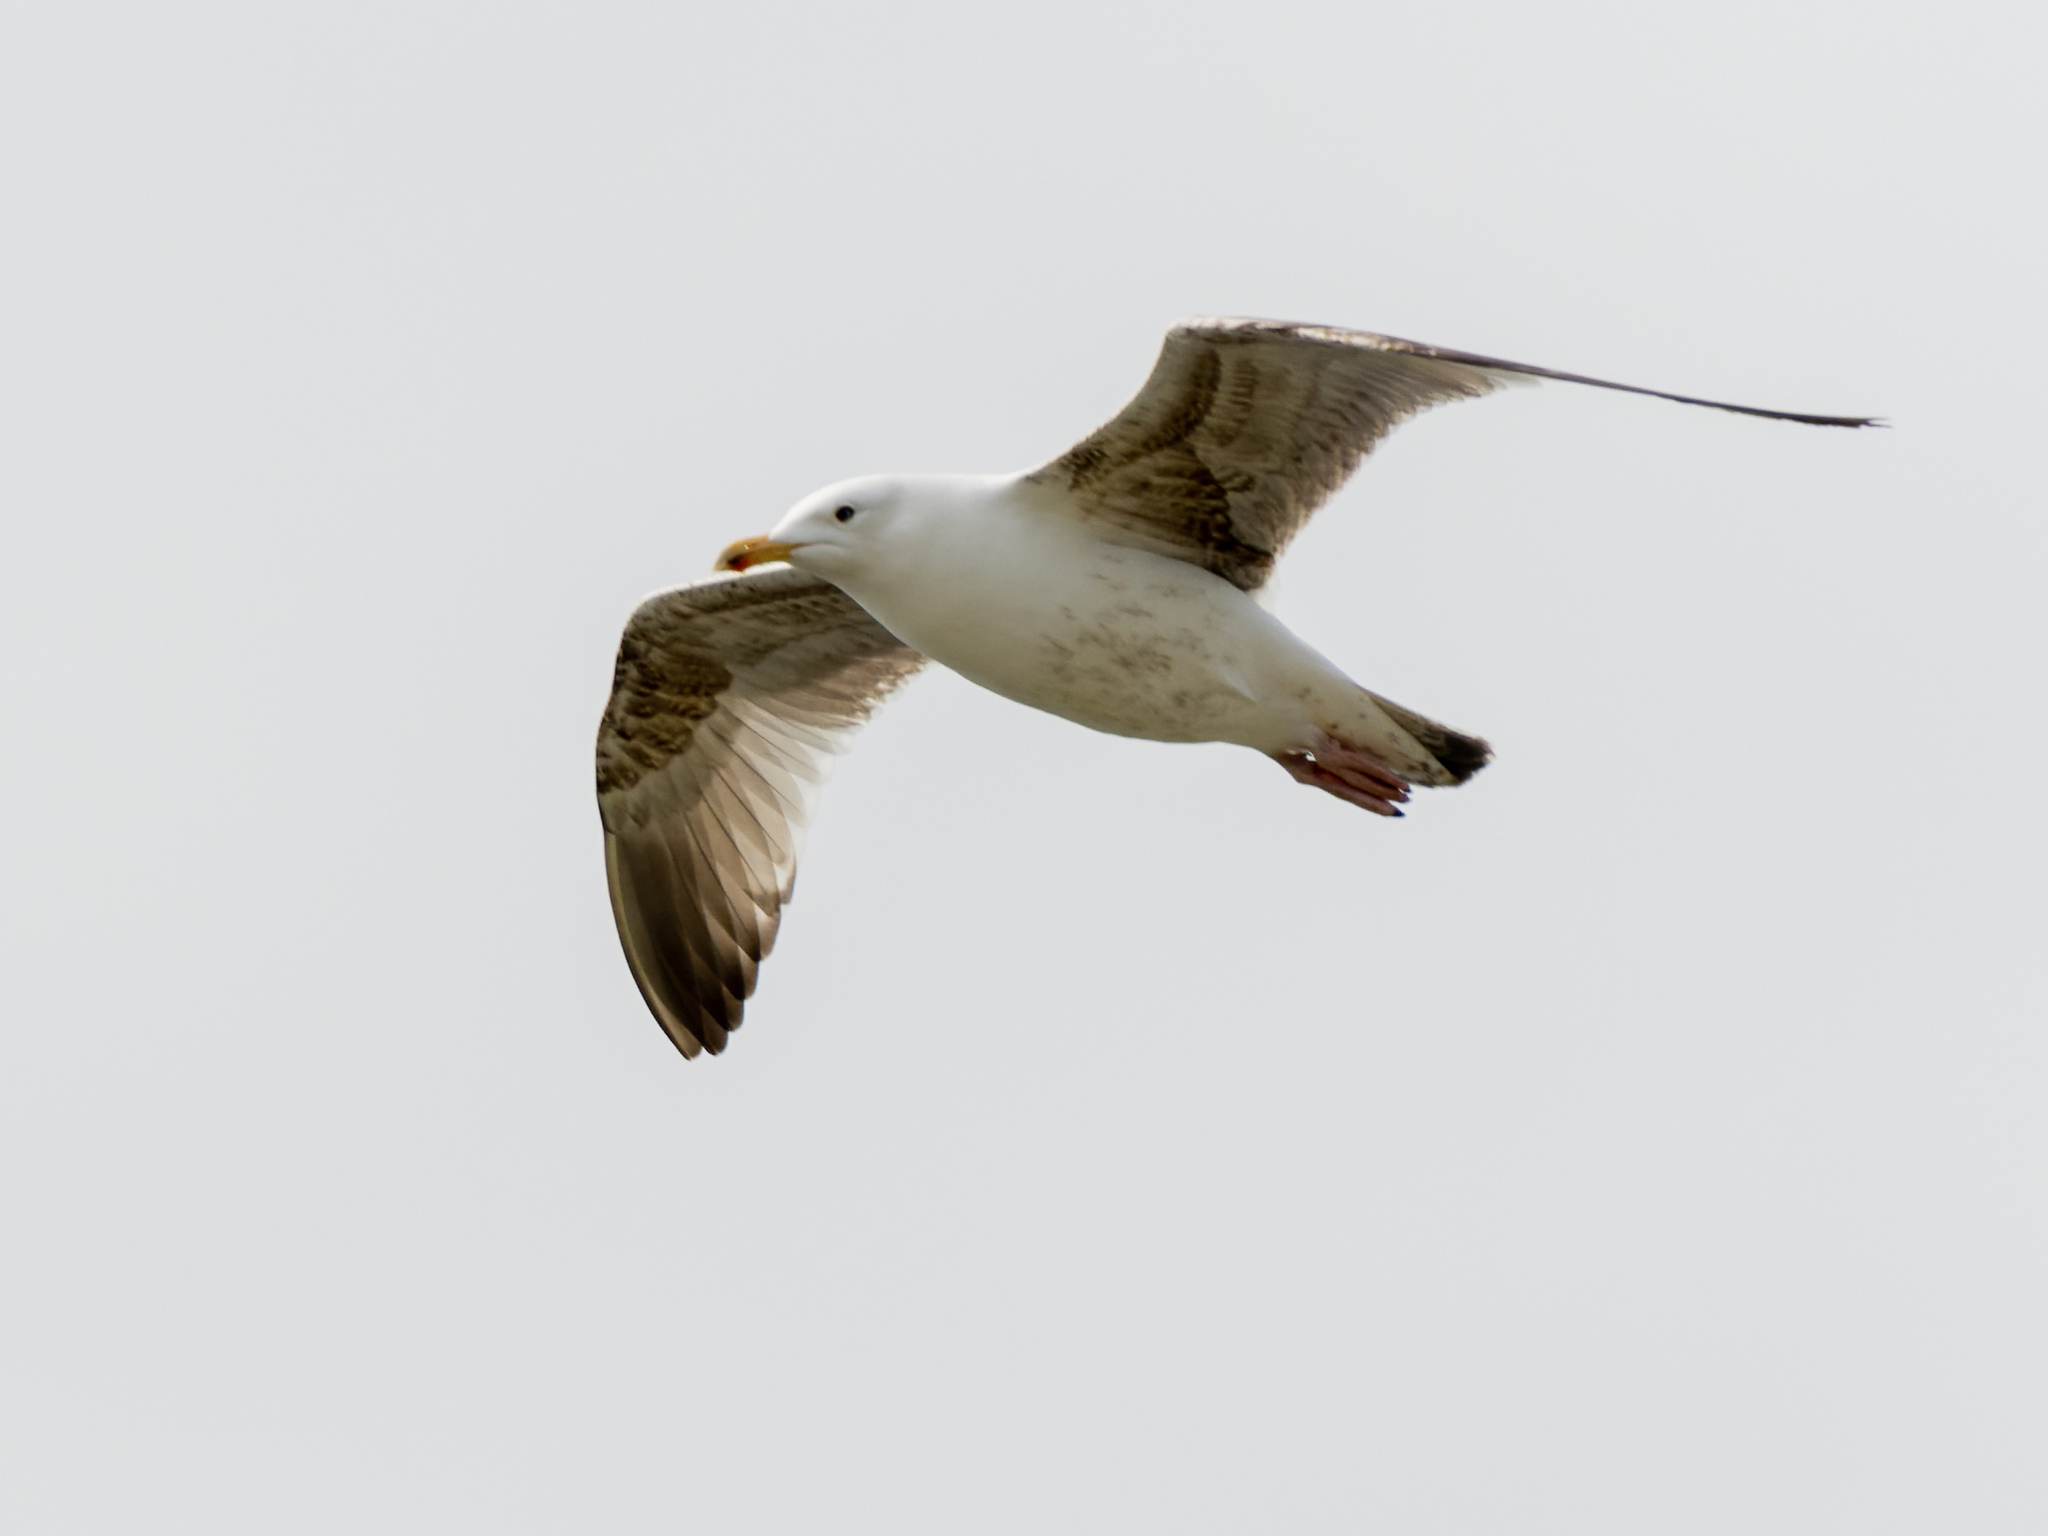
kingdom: Animalia
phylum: Chordata
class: Aves
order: Charadriiformes
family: Laridae
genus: Larus
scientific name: Larus marinus
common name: Great black-backed gull
